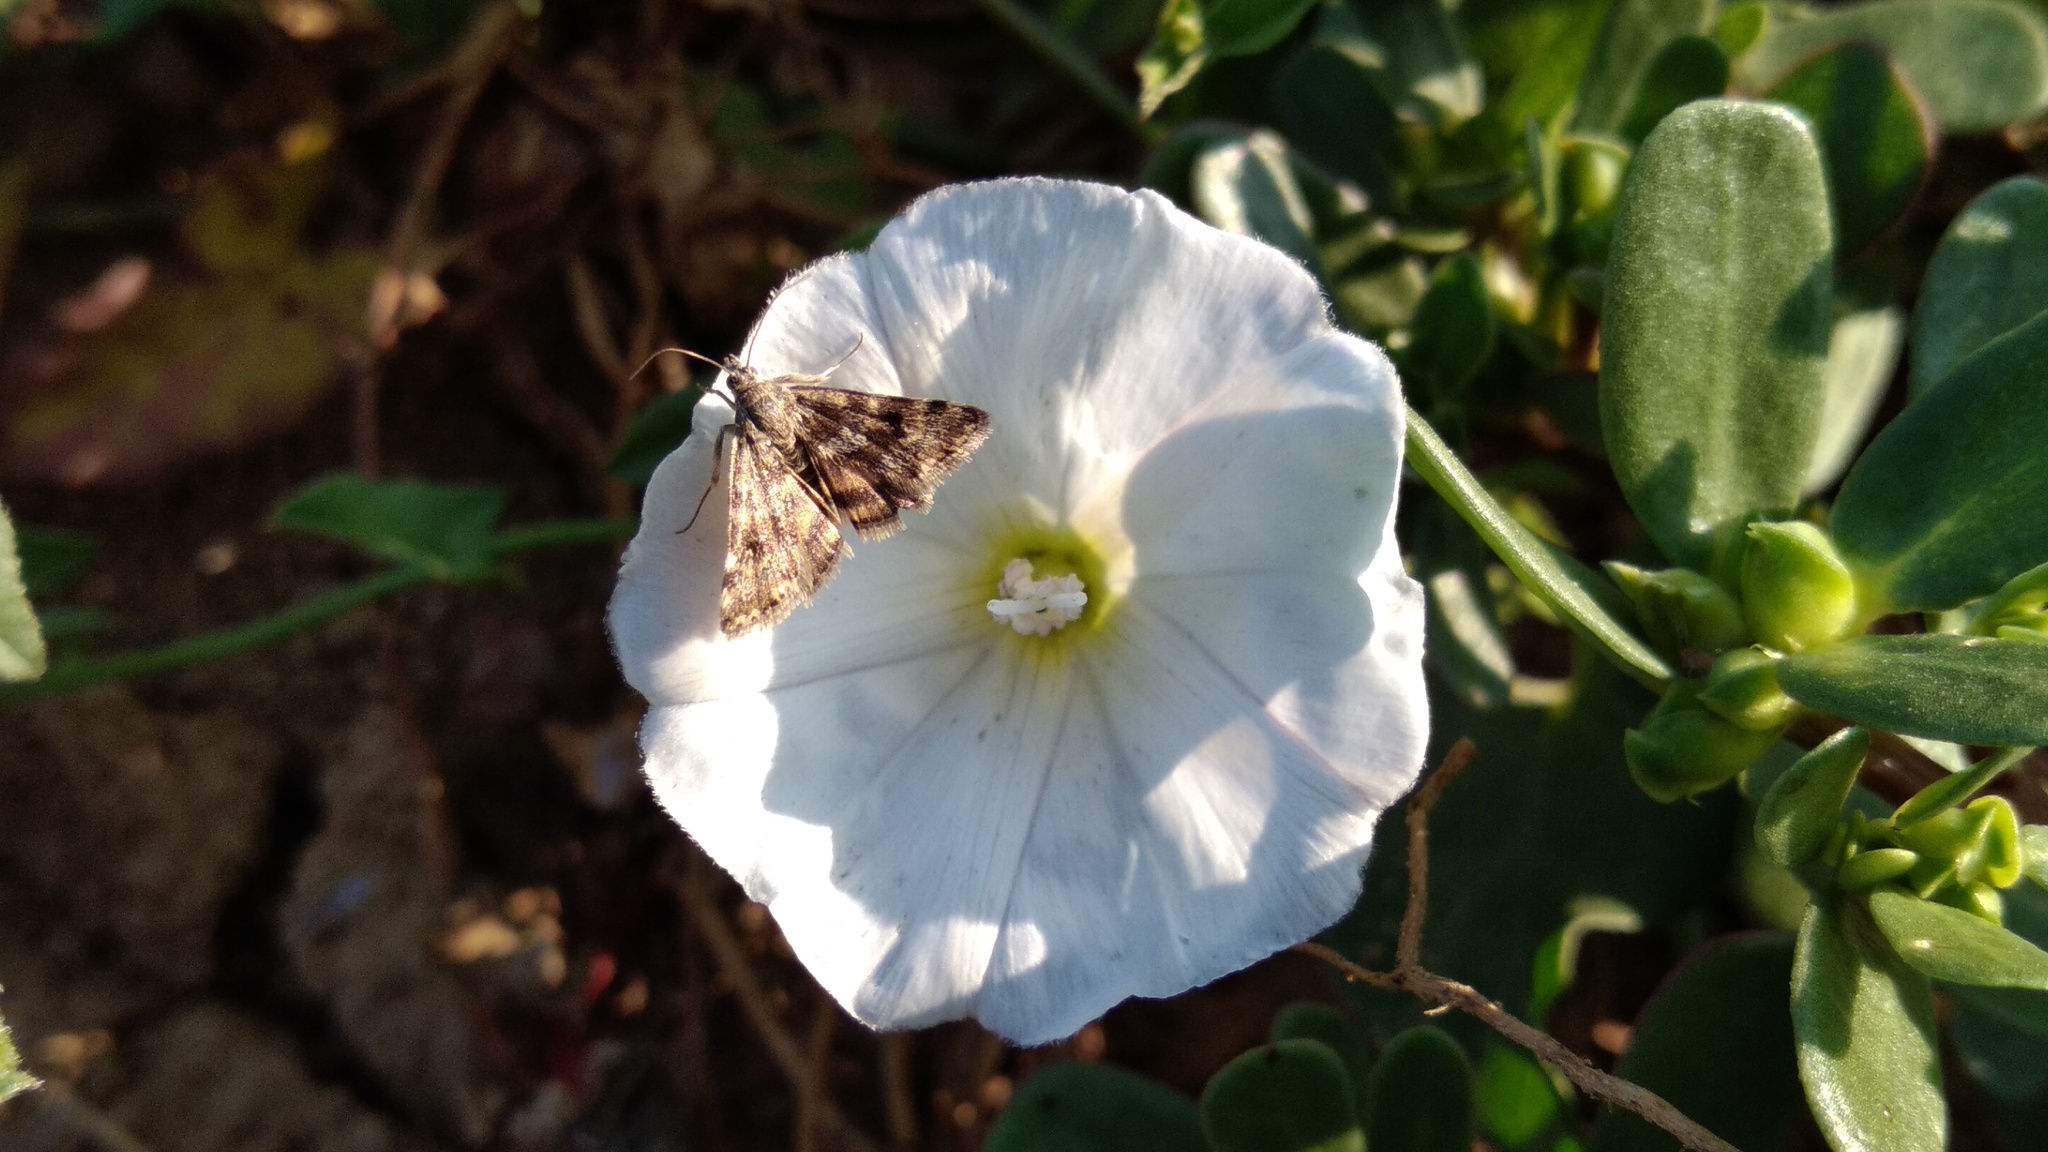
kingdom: Animalia
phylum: Arthropoda
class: Insecta
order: Lepidoptera
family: Crambidae
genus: Noctuelia
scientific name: Noctuelia Aporodes floralis
